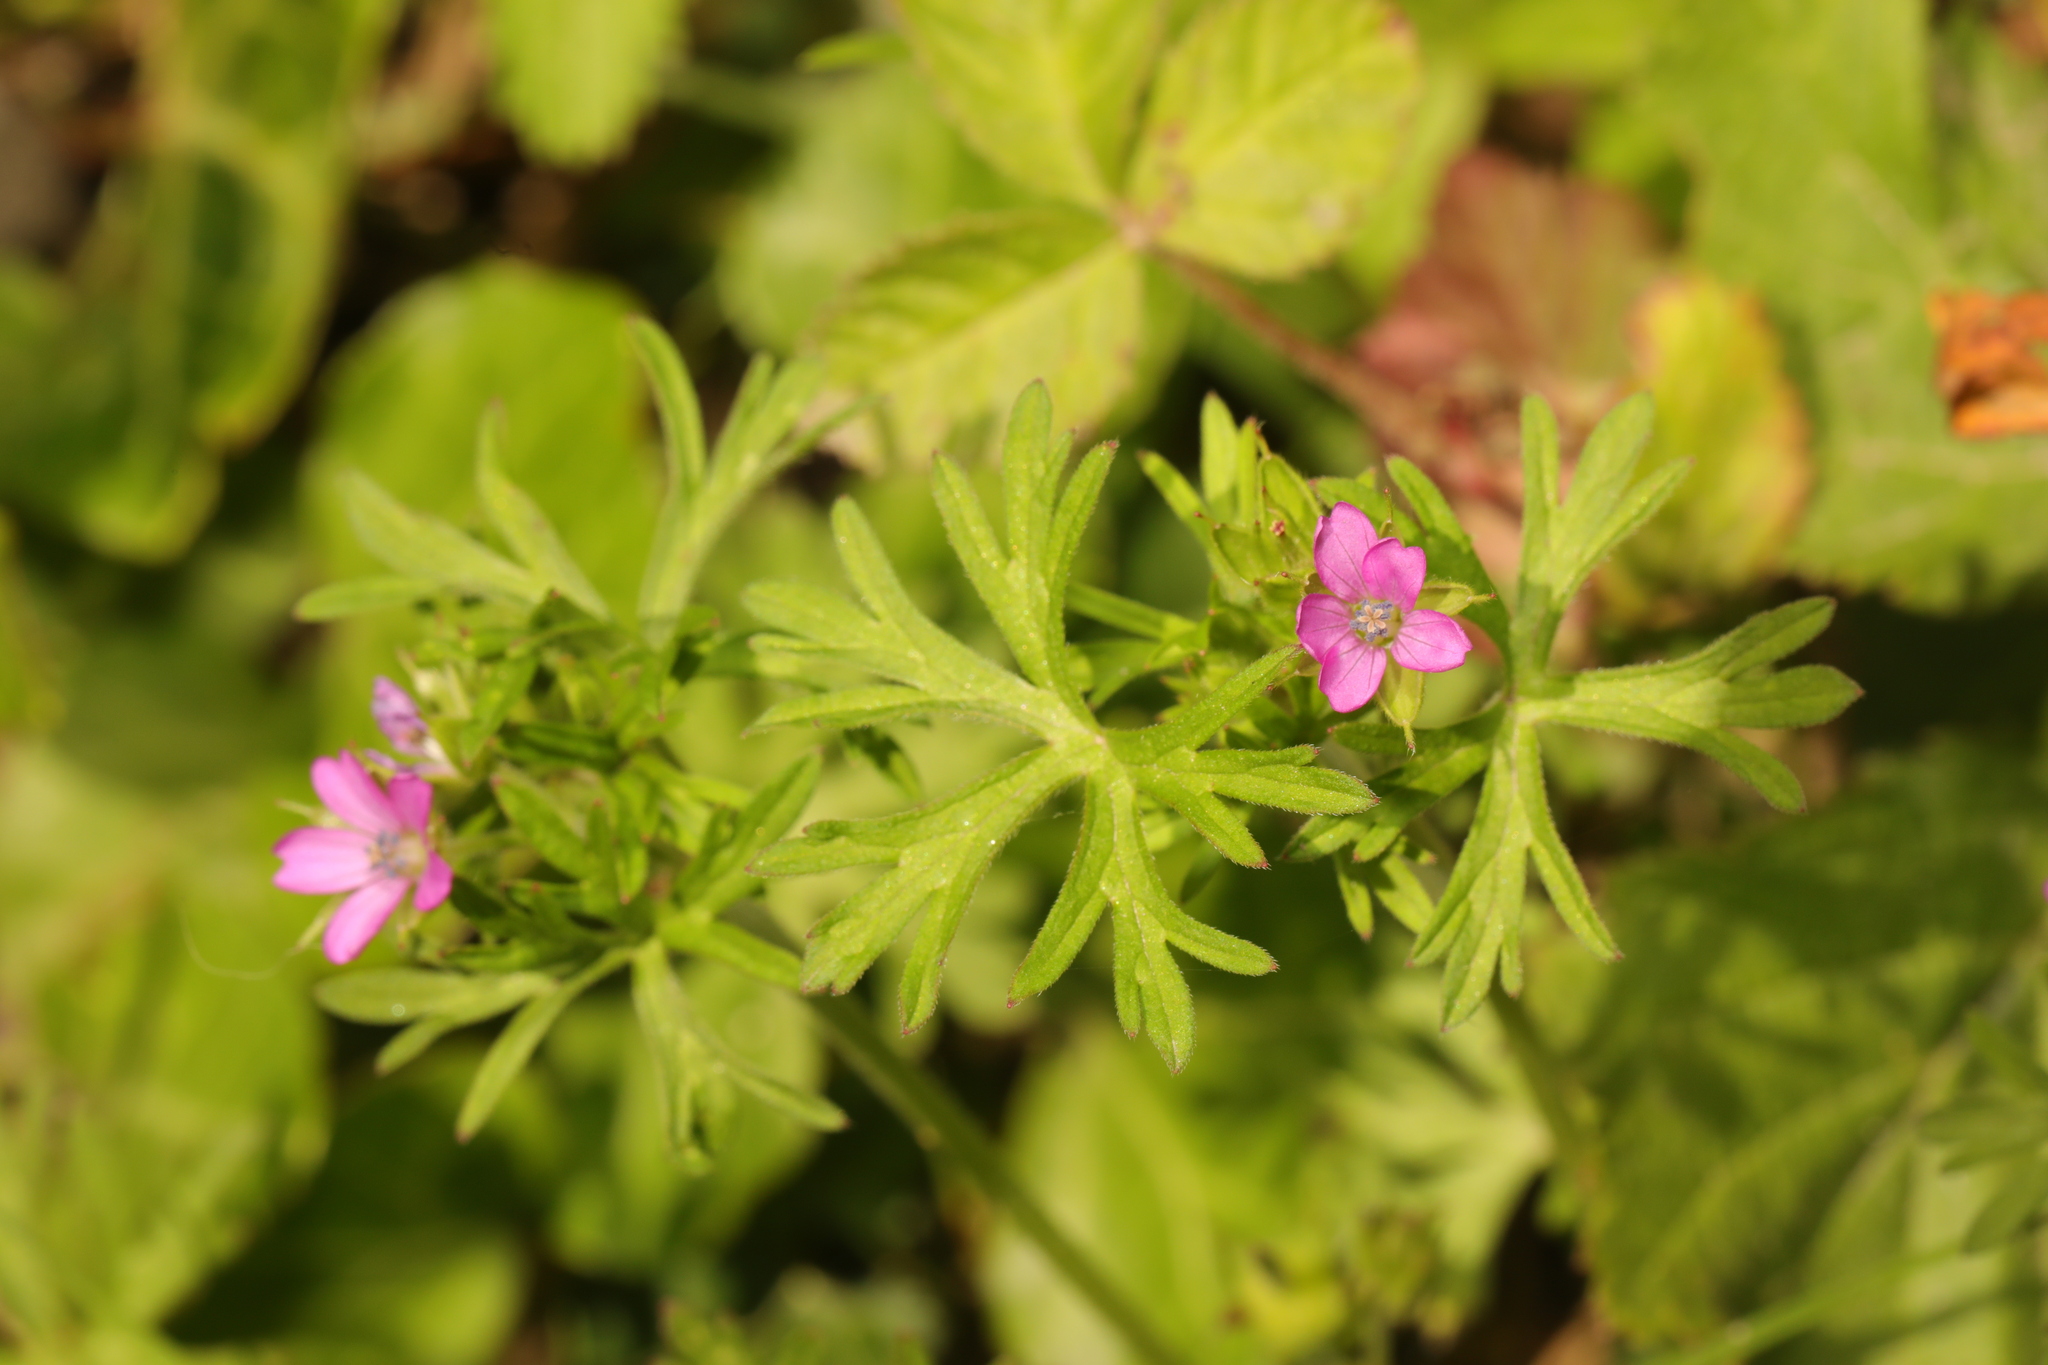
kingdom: Plantae
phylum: Tracheophyta
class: Magnoliopsida
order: Geraniales
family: Geraniaceae
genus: Geranium
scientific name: Geranium dissectum
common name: Cut-leaved crane's-bill
